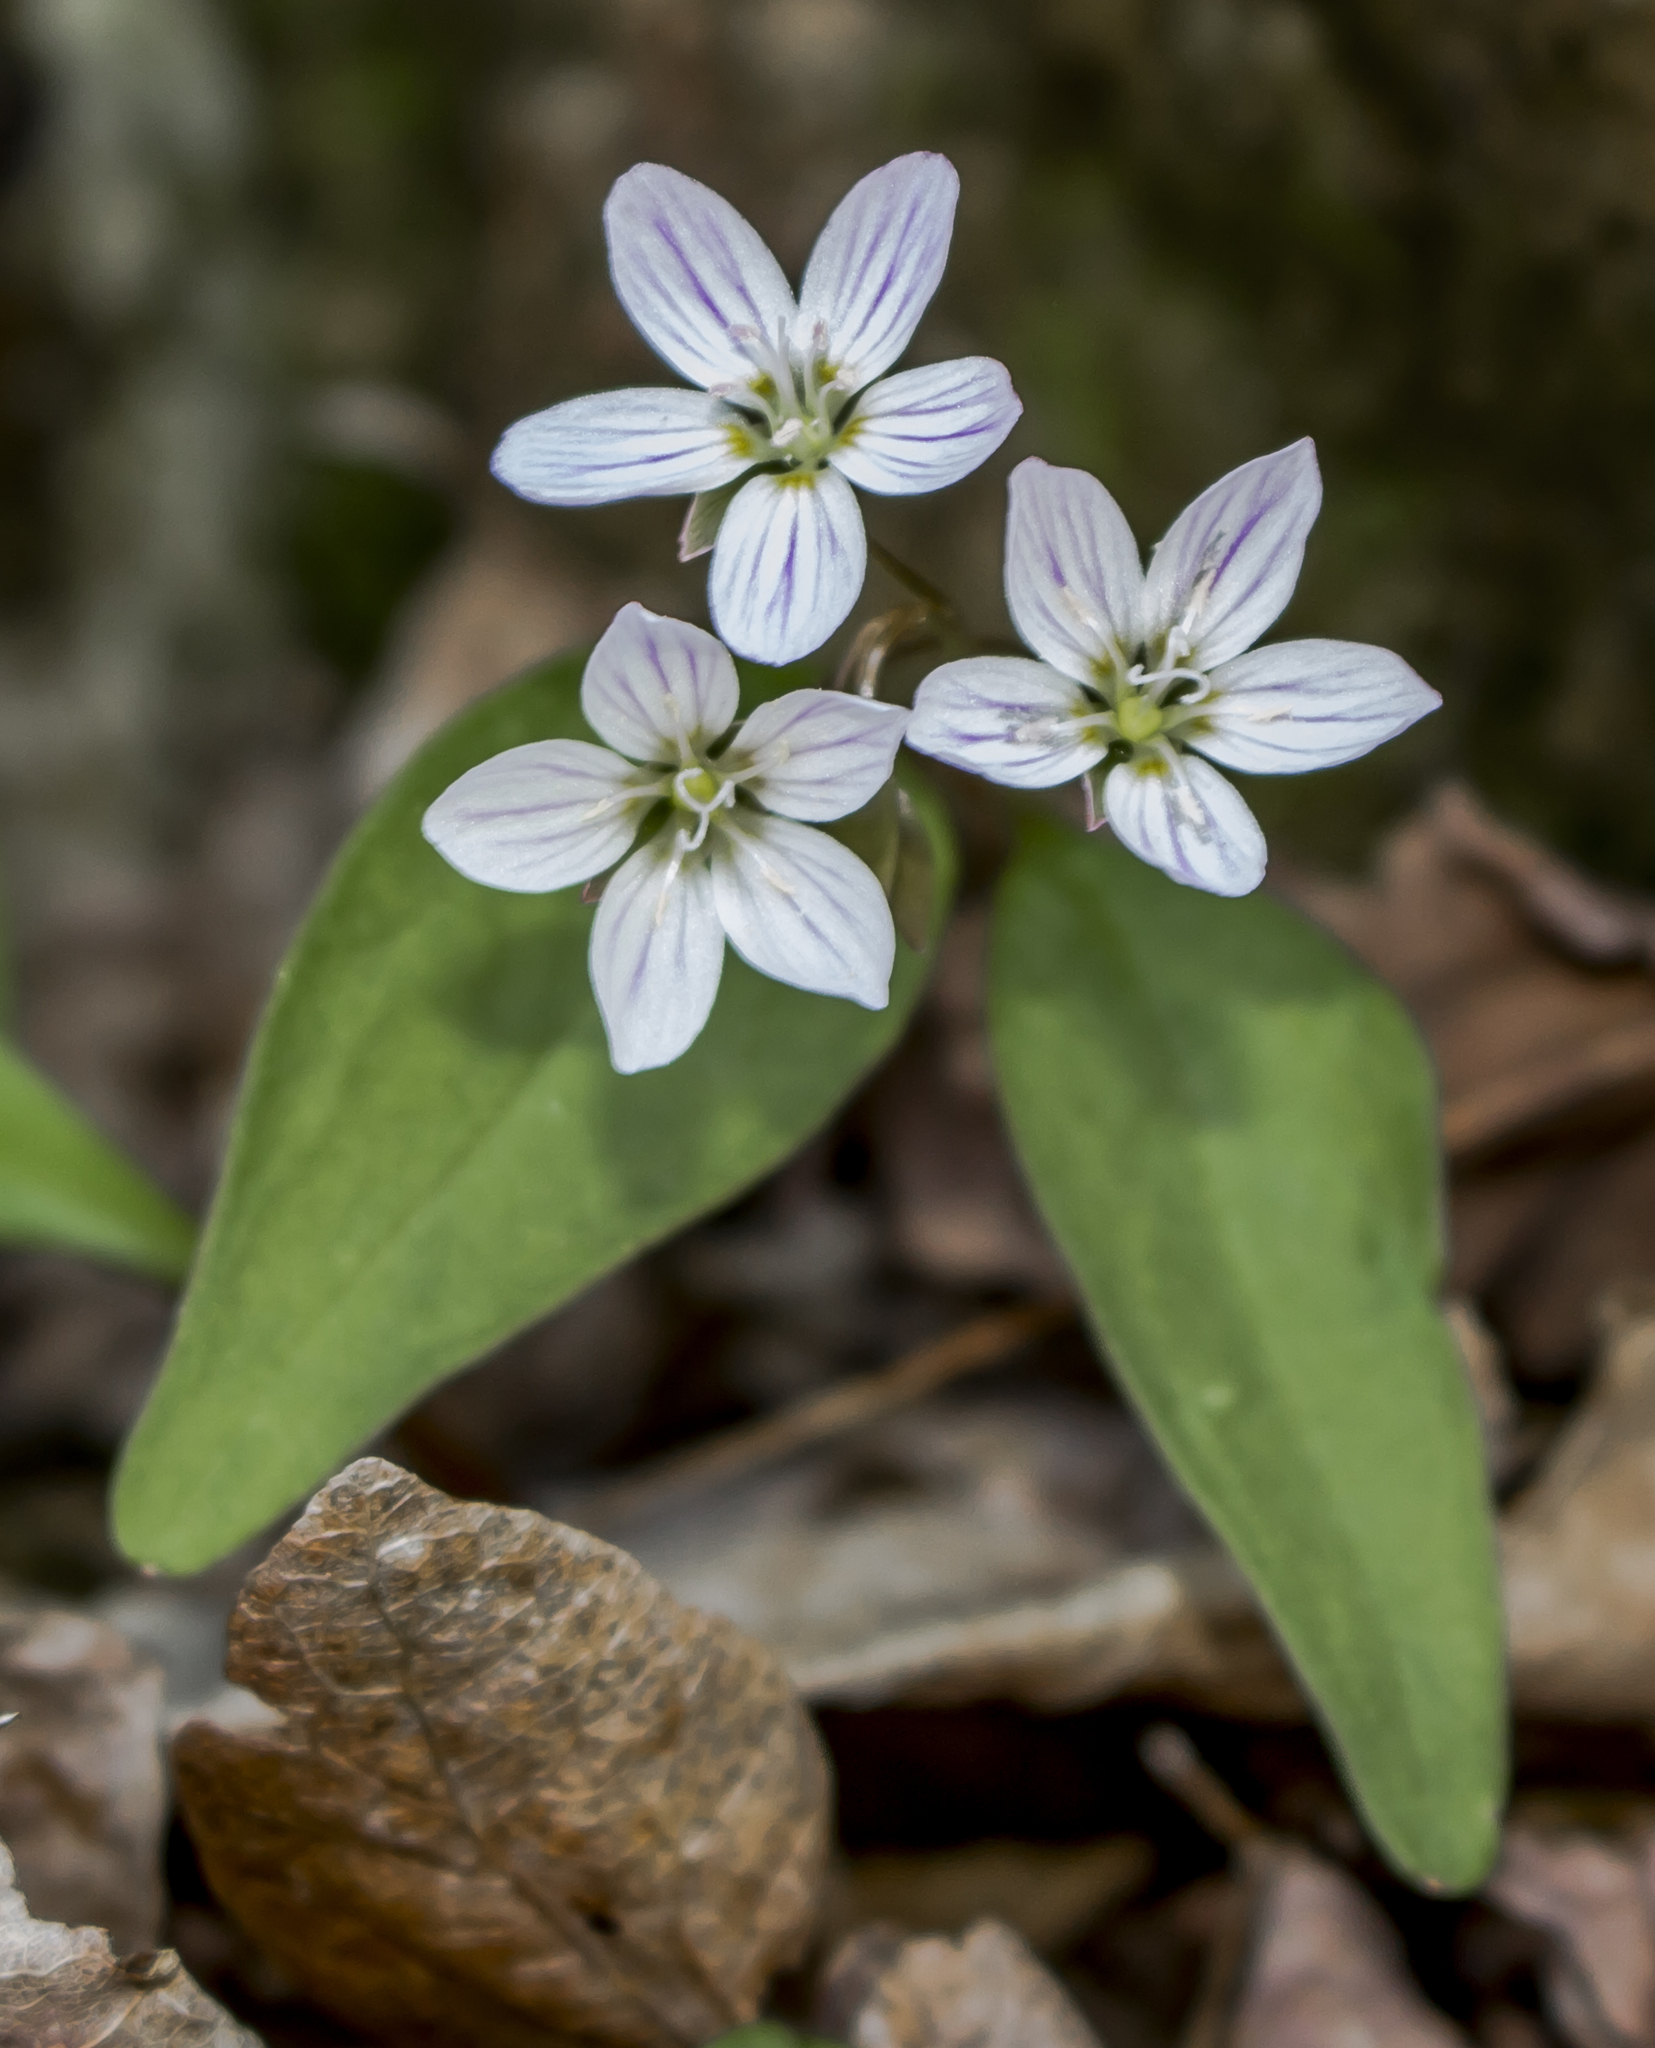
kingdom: Plantae
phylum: Tracheophyta
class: Magnoliopsida
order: Caryophyllales
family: Montiaceae
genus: Claytonia
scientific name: Claytonia caroliniana
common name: Carolina spring beauty
